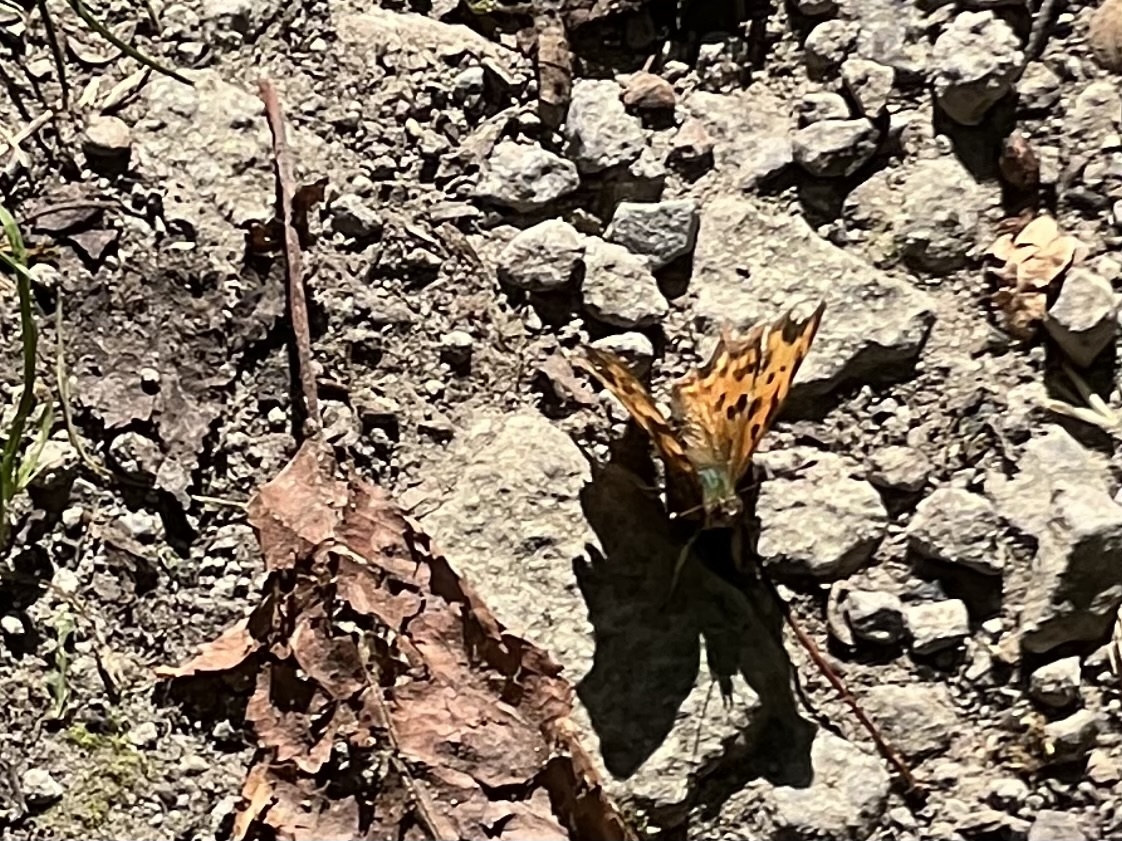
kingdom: Animalia
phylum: Arthropoda
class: Insecta
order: Lepidoptera
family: Nymphalidae
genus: Polygonia
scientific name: Polygonia c-album
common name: Comma
